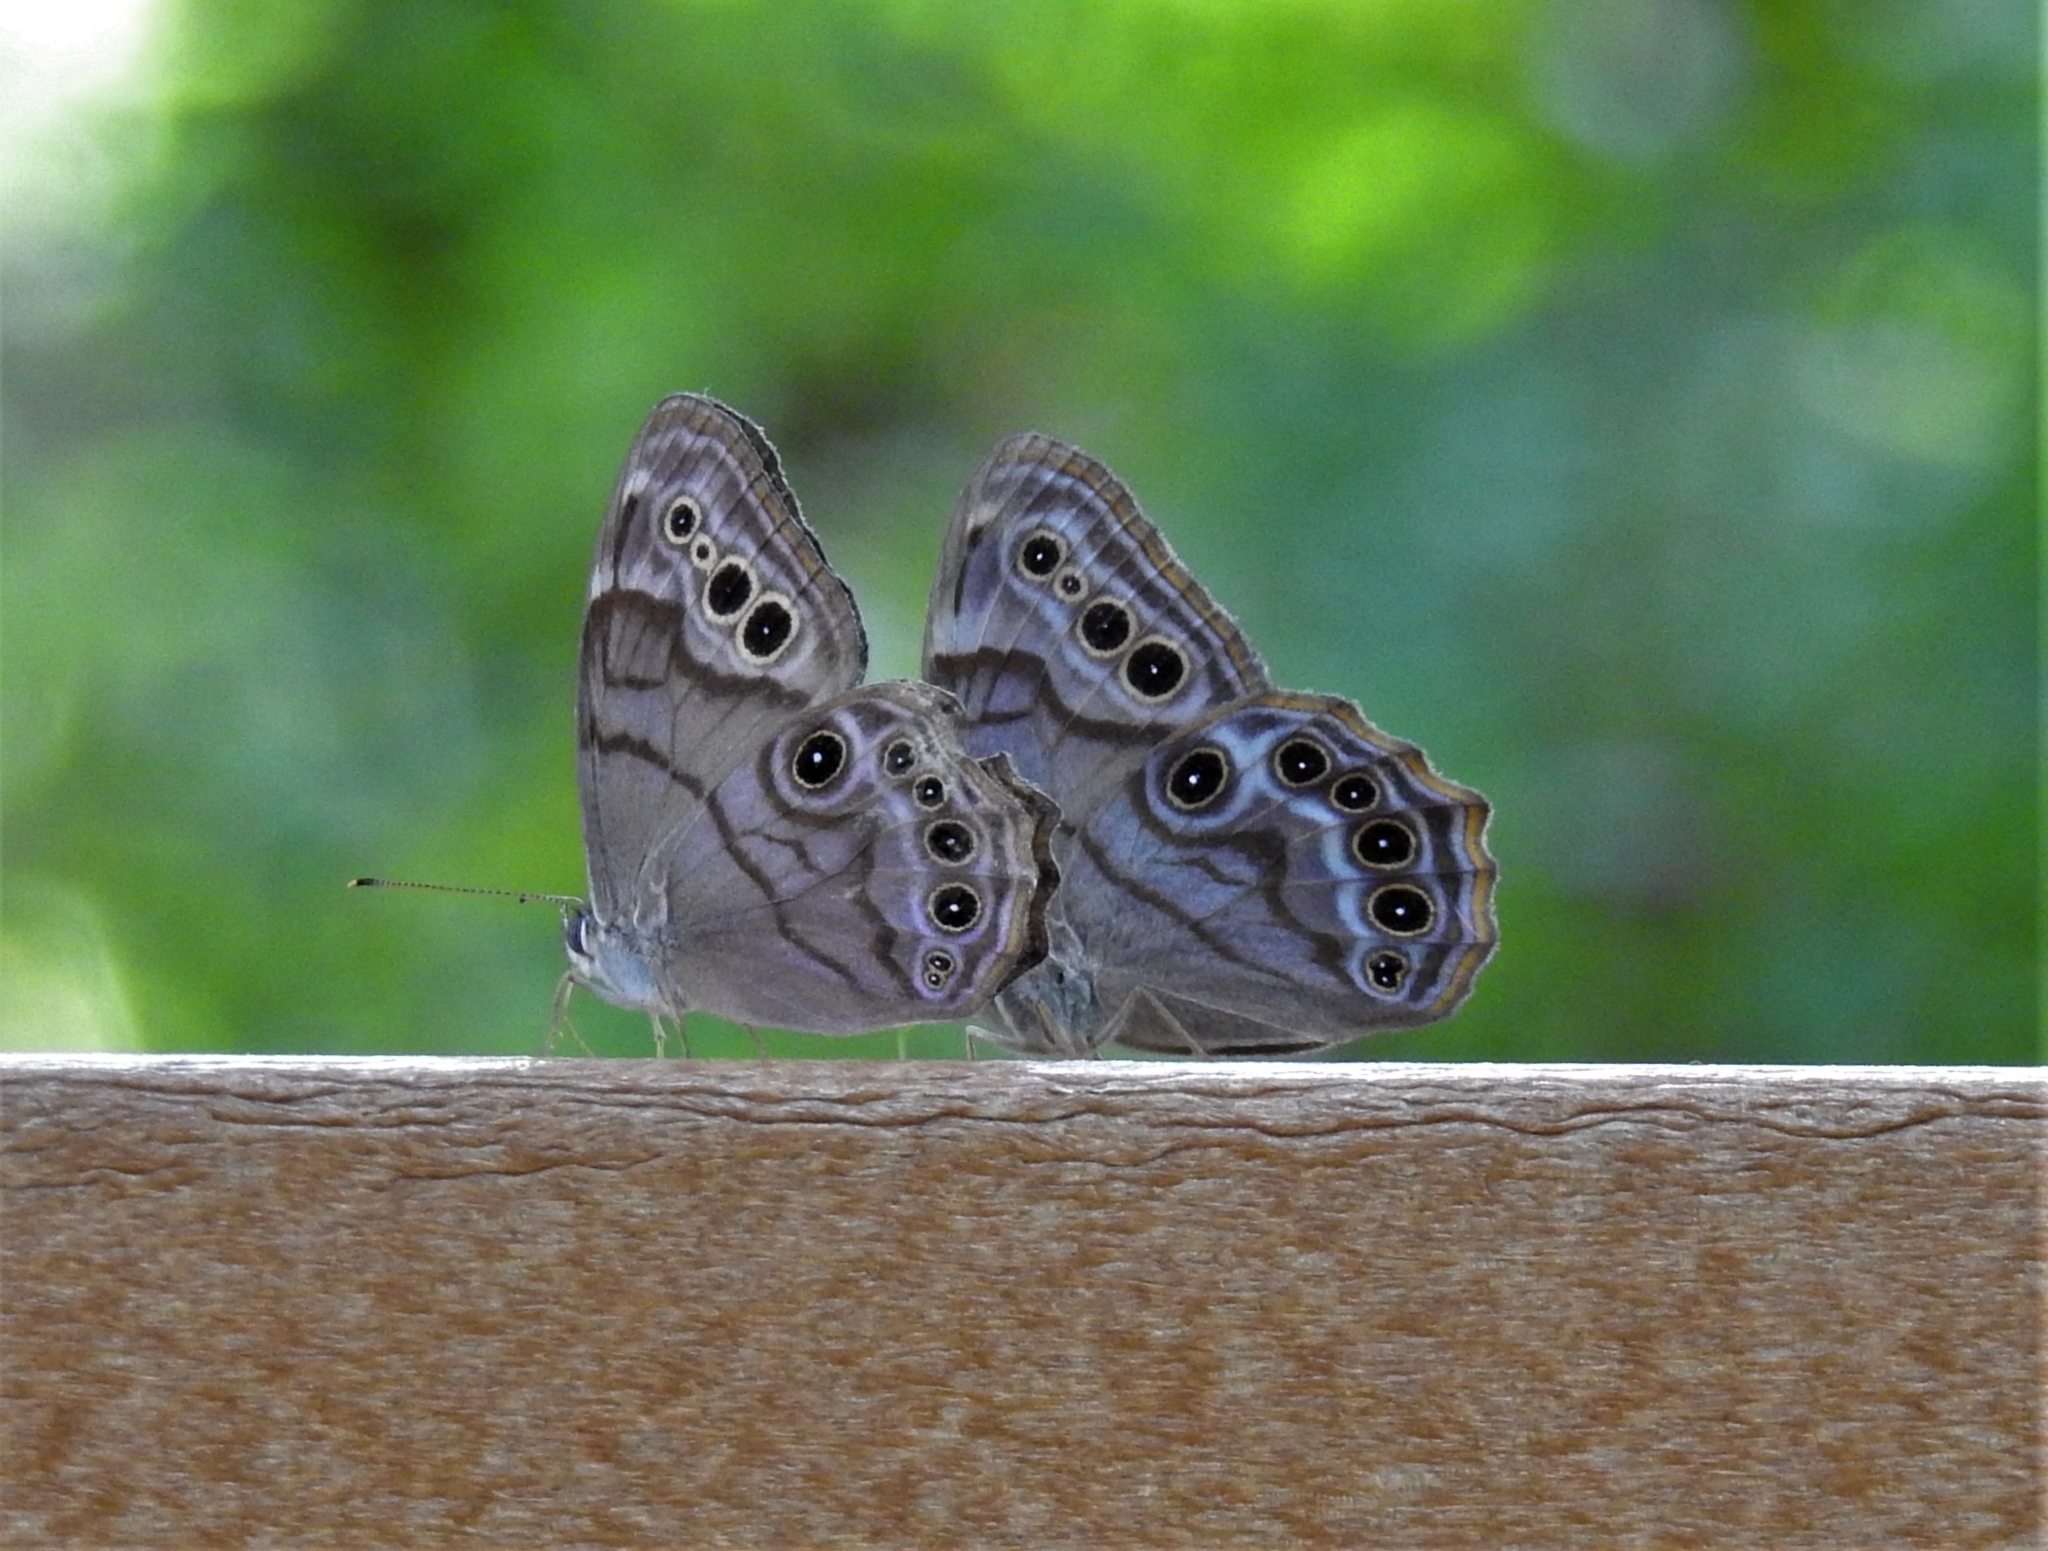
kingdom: Animalia
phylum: Arthropoda
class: Insecta
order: Lepidoptera
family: Nymphalidae
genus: Lethe
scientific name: Lethe anthedon
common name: Northern pearly-eye
